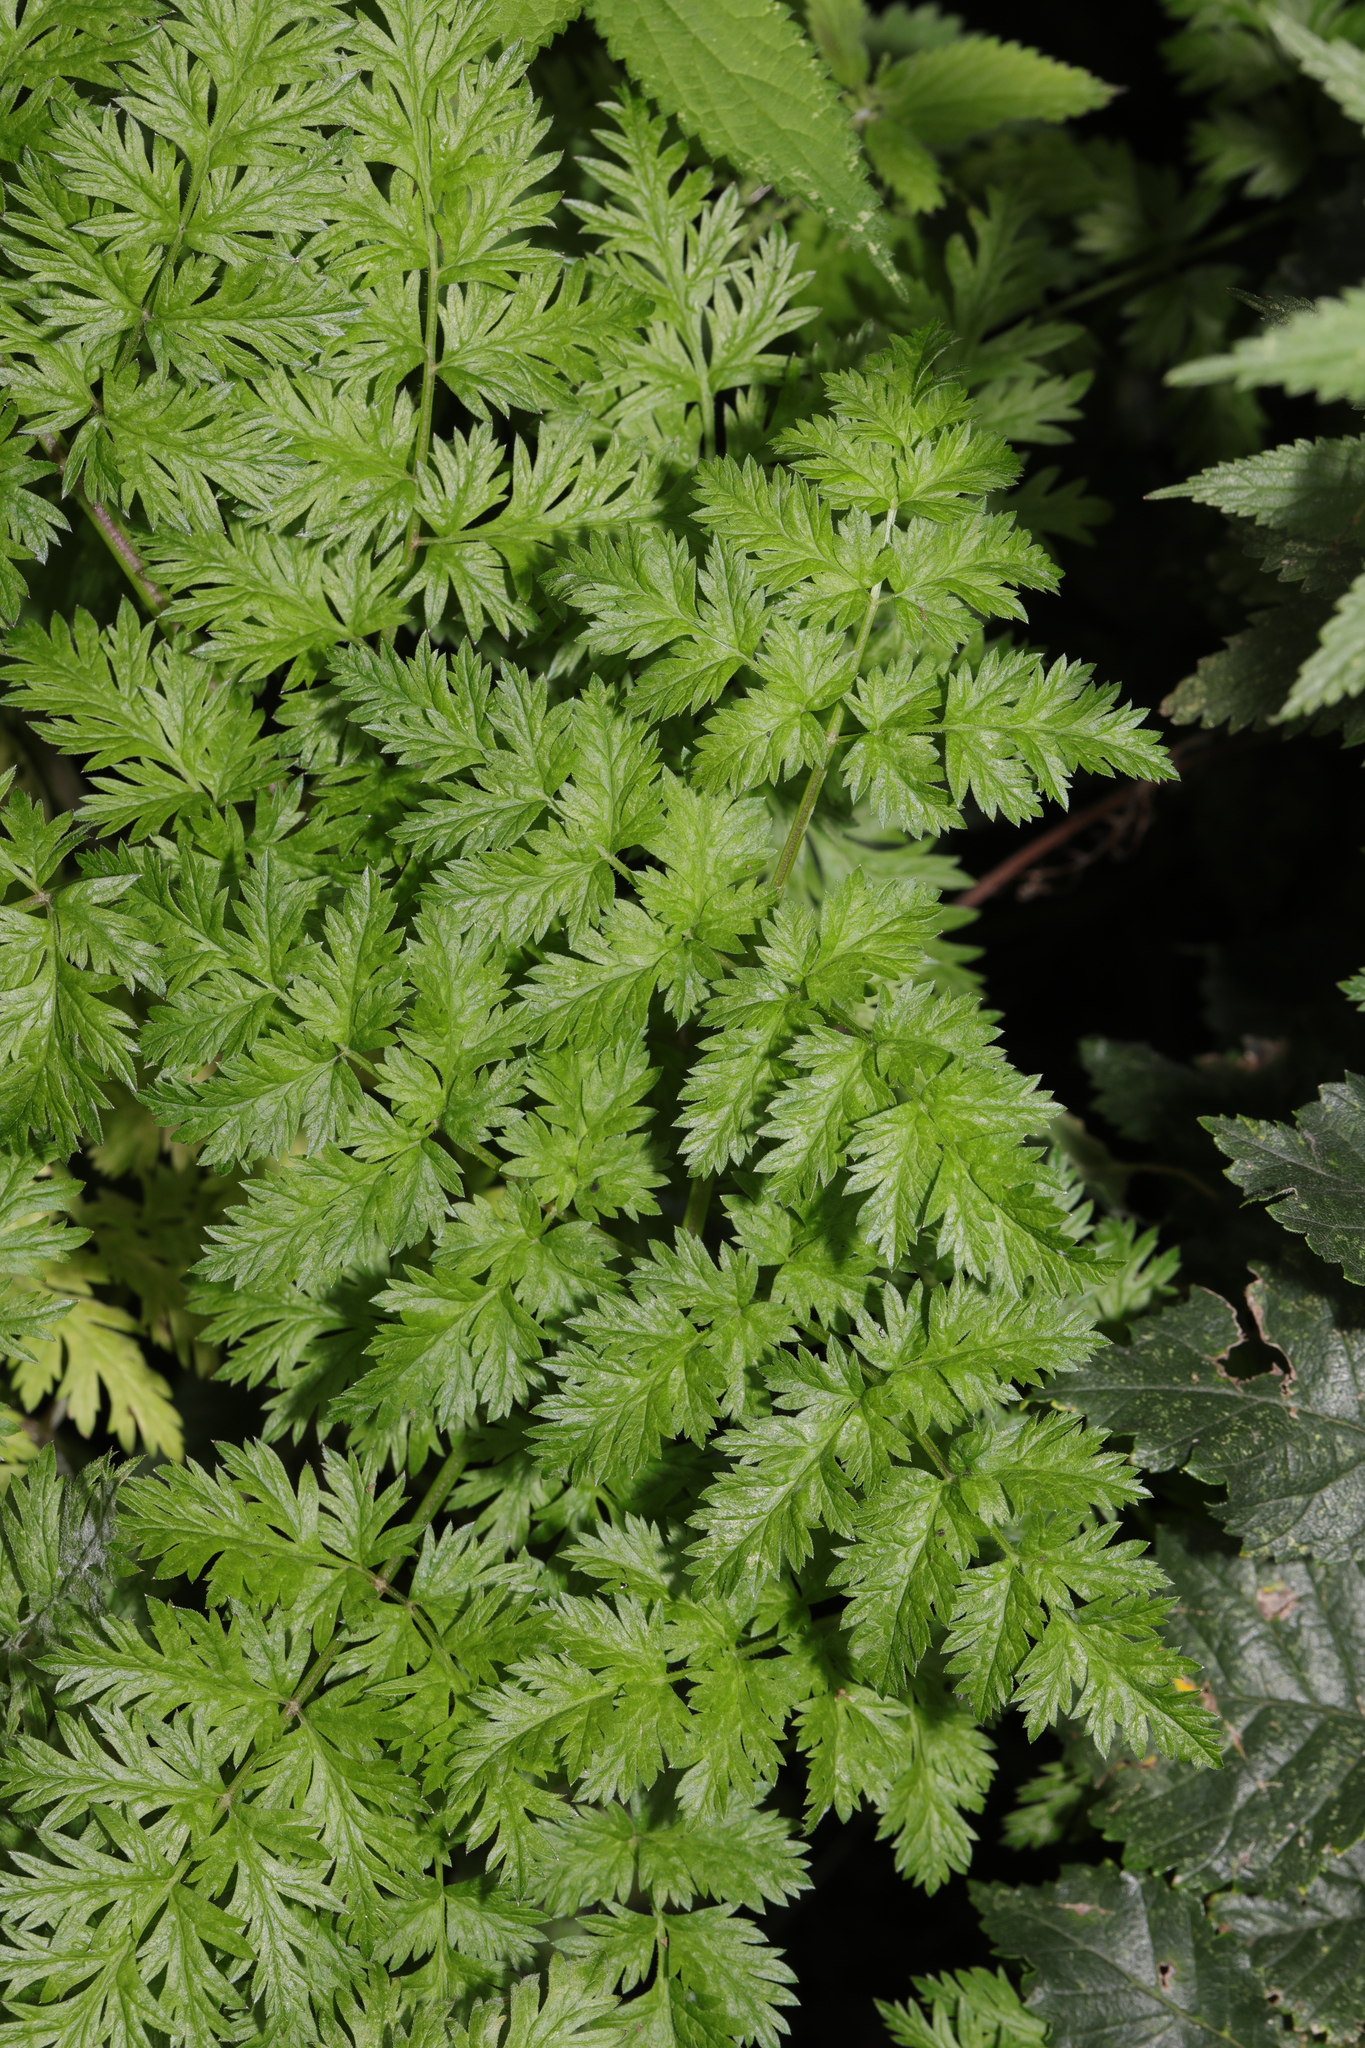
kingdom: Plantae
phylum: Tracheophyta
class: Magnoliopsida
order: Apiales
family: Apiaceae
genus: Anthriscus
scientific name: Anthriscus sylvestris
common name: Cow parsley
